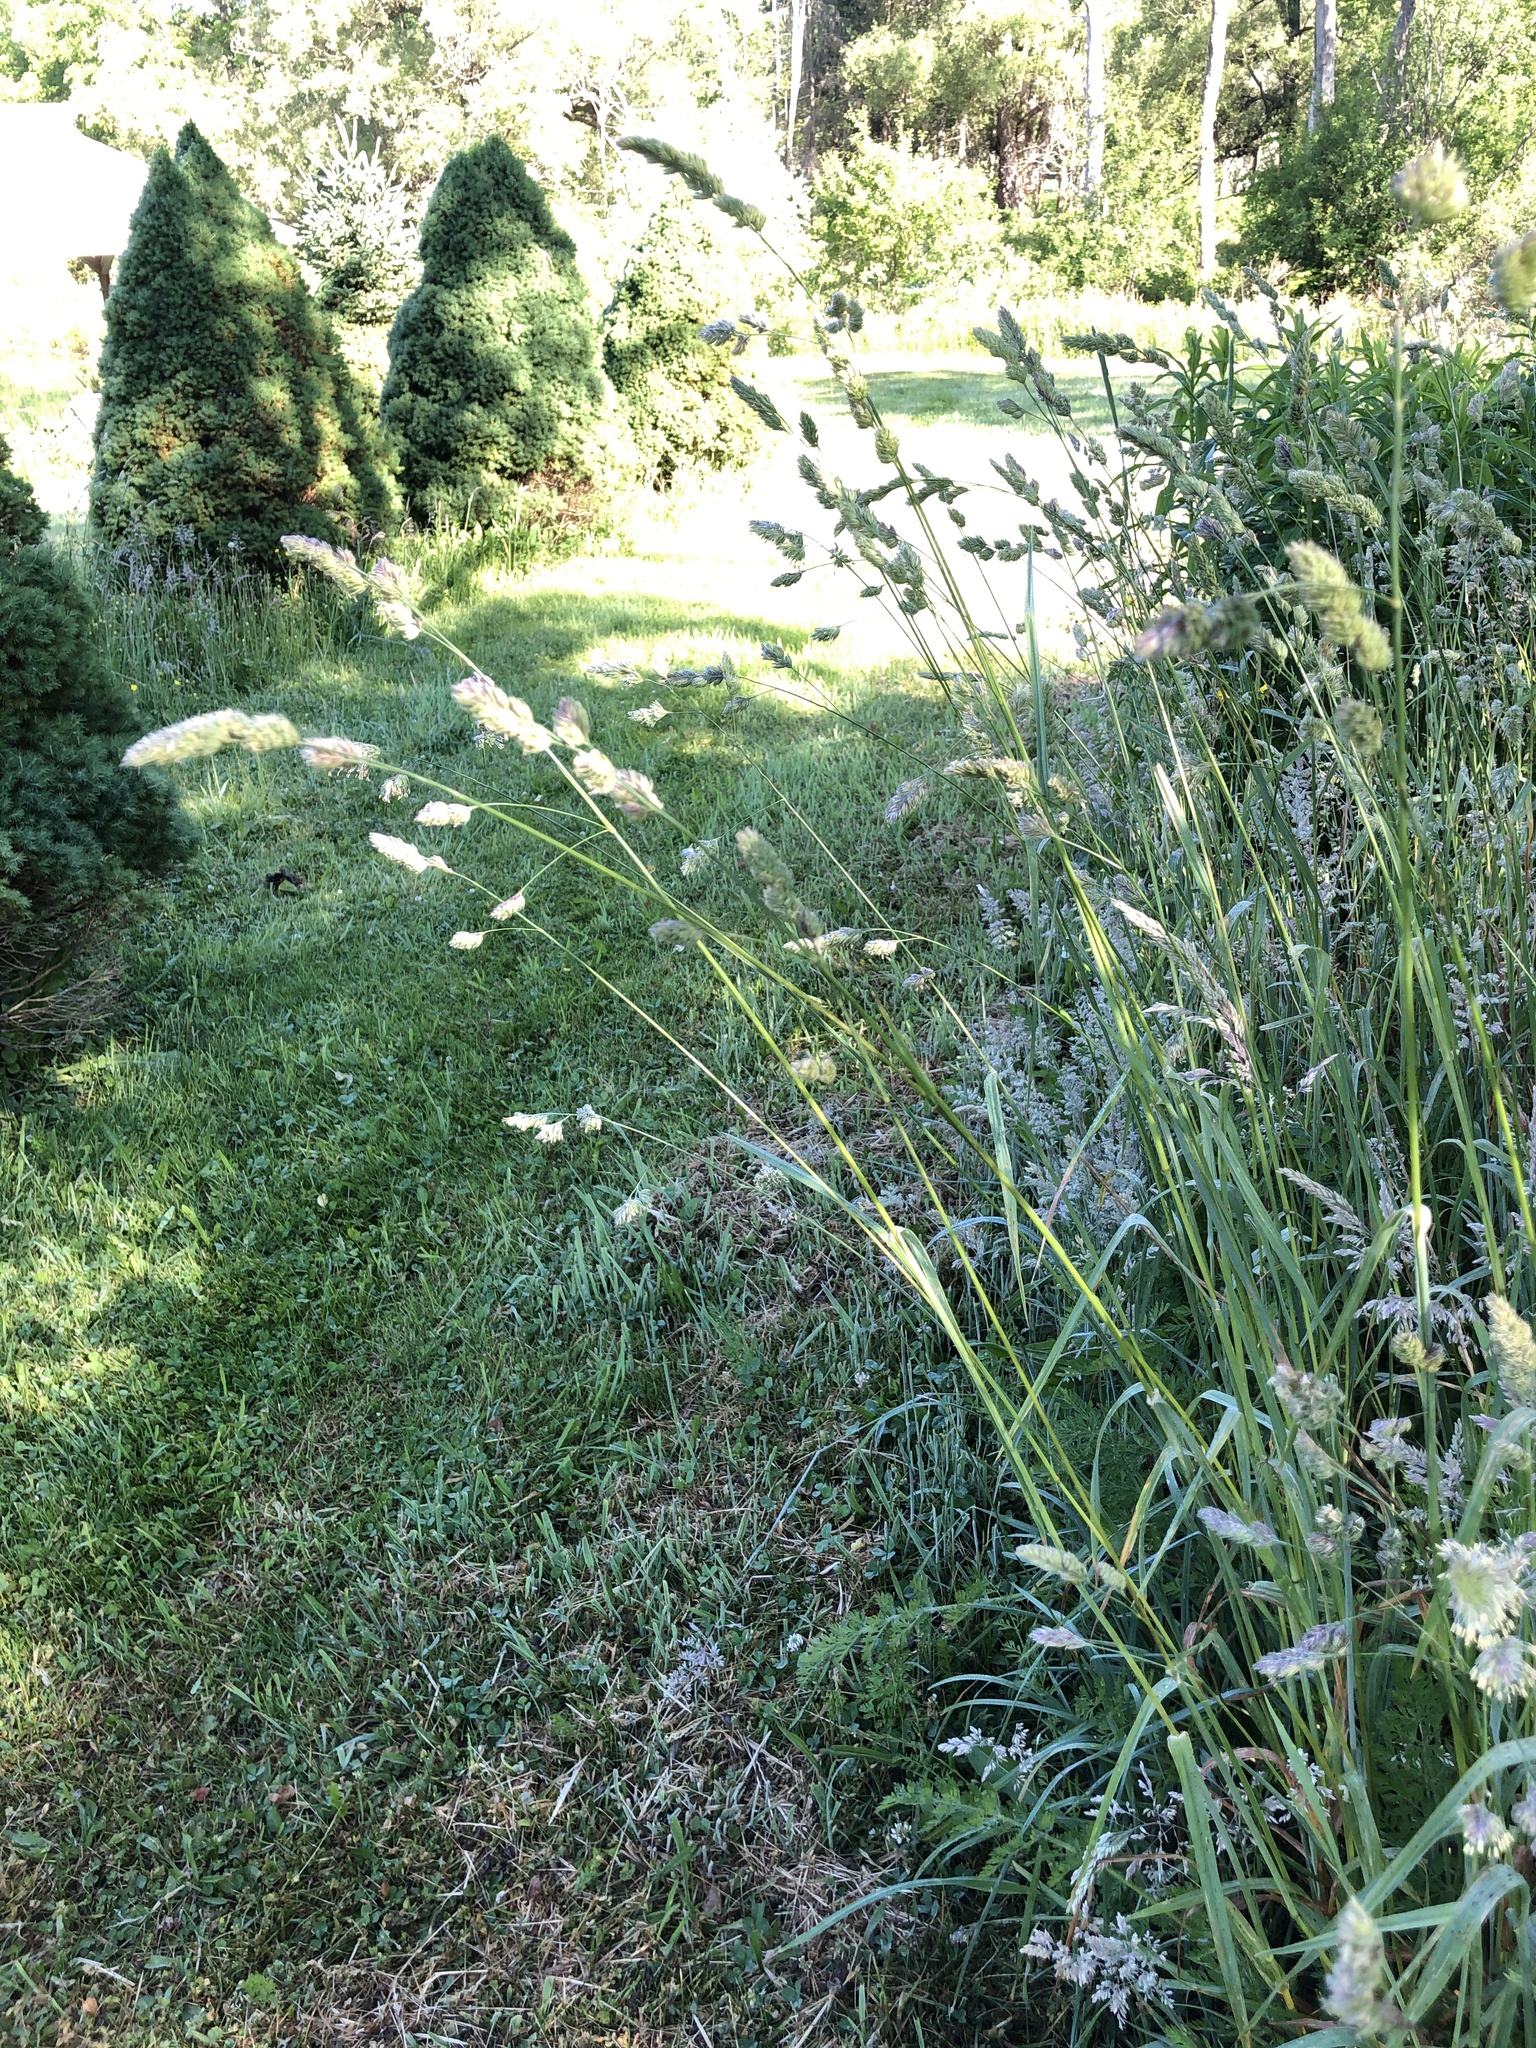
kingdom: Plantae
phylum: Tracheophyta
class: Liliopsida
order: Poales
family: Poaceae
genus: Dactylis
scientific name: Dactylis glomerata
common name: Orchardgrass
